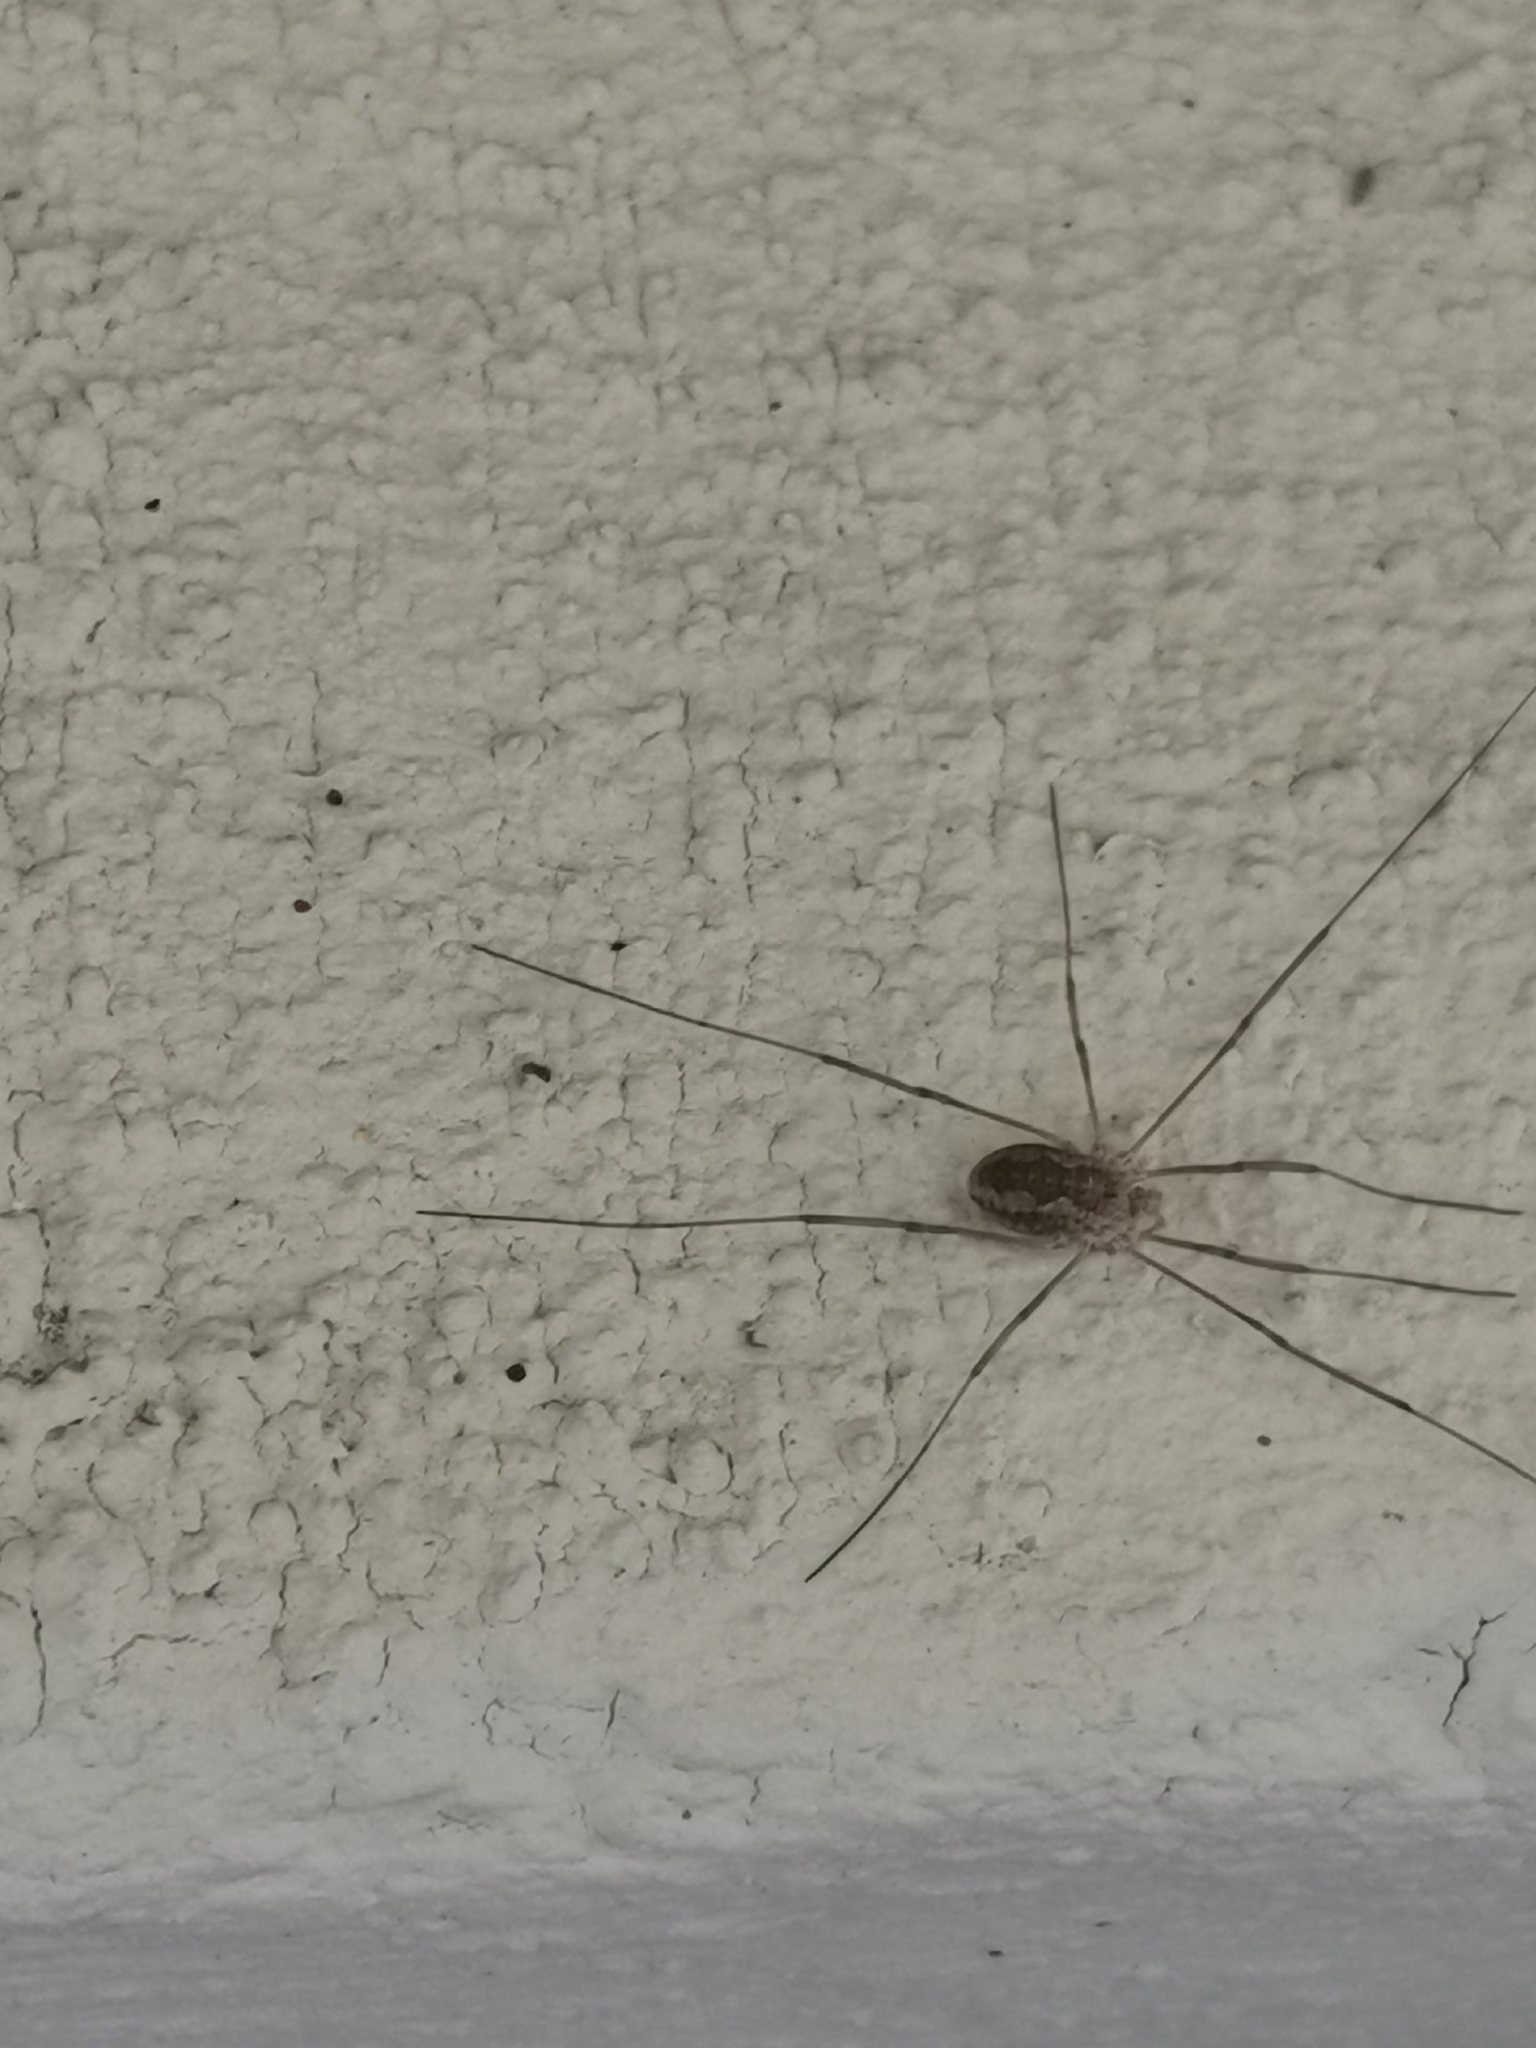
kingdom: Animalia
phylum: Arthropoda
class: Arachnida
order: Opiliones
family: Phalangiidae
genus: Phalangium
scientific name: Phalangium opilio
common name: Daddy longleg
